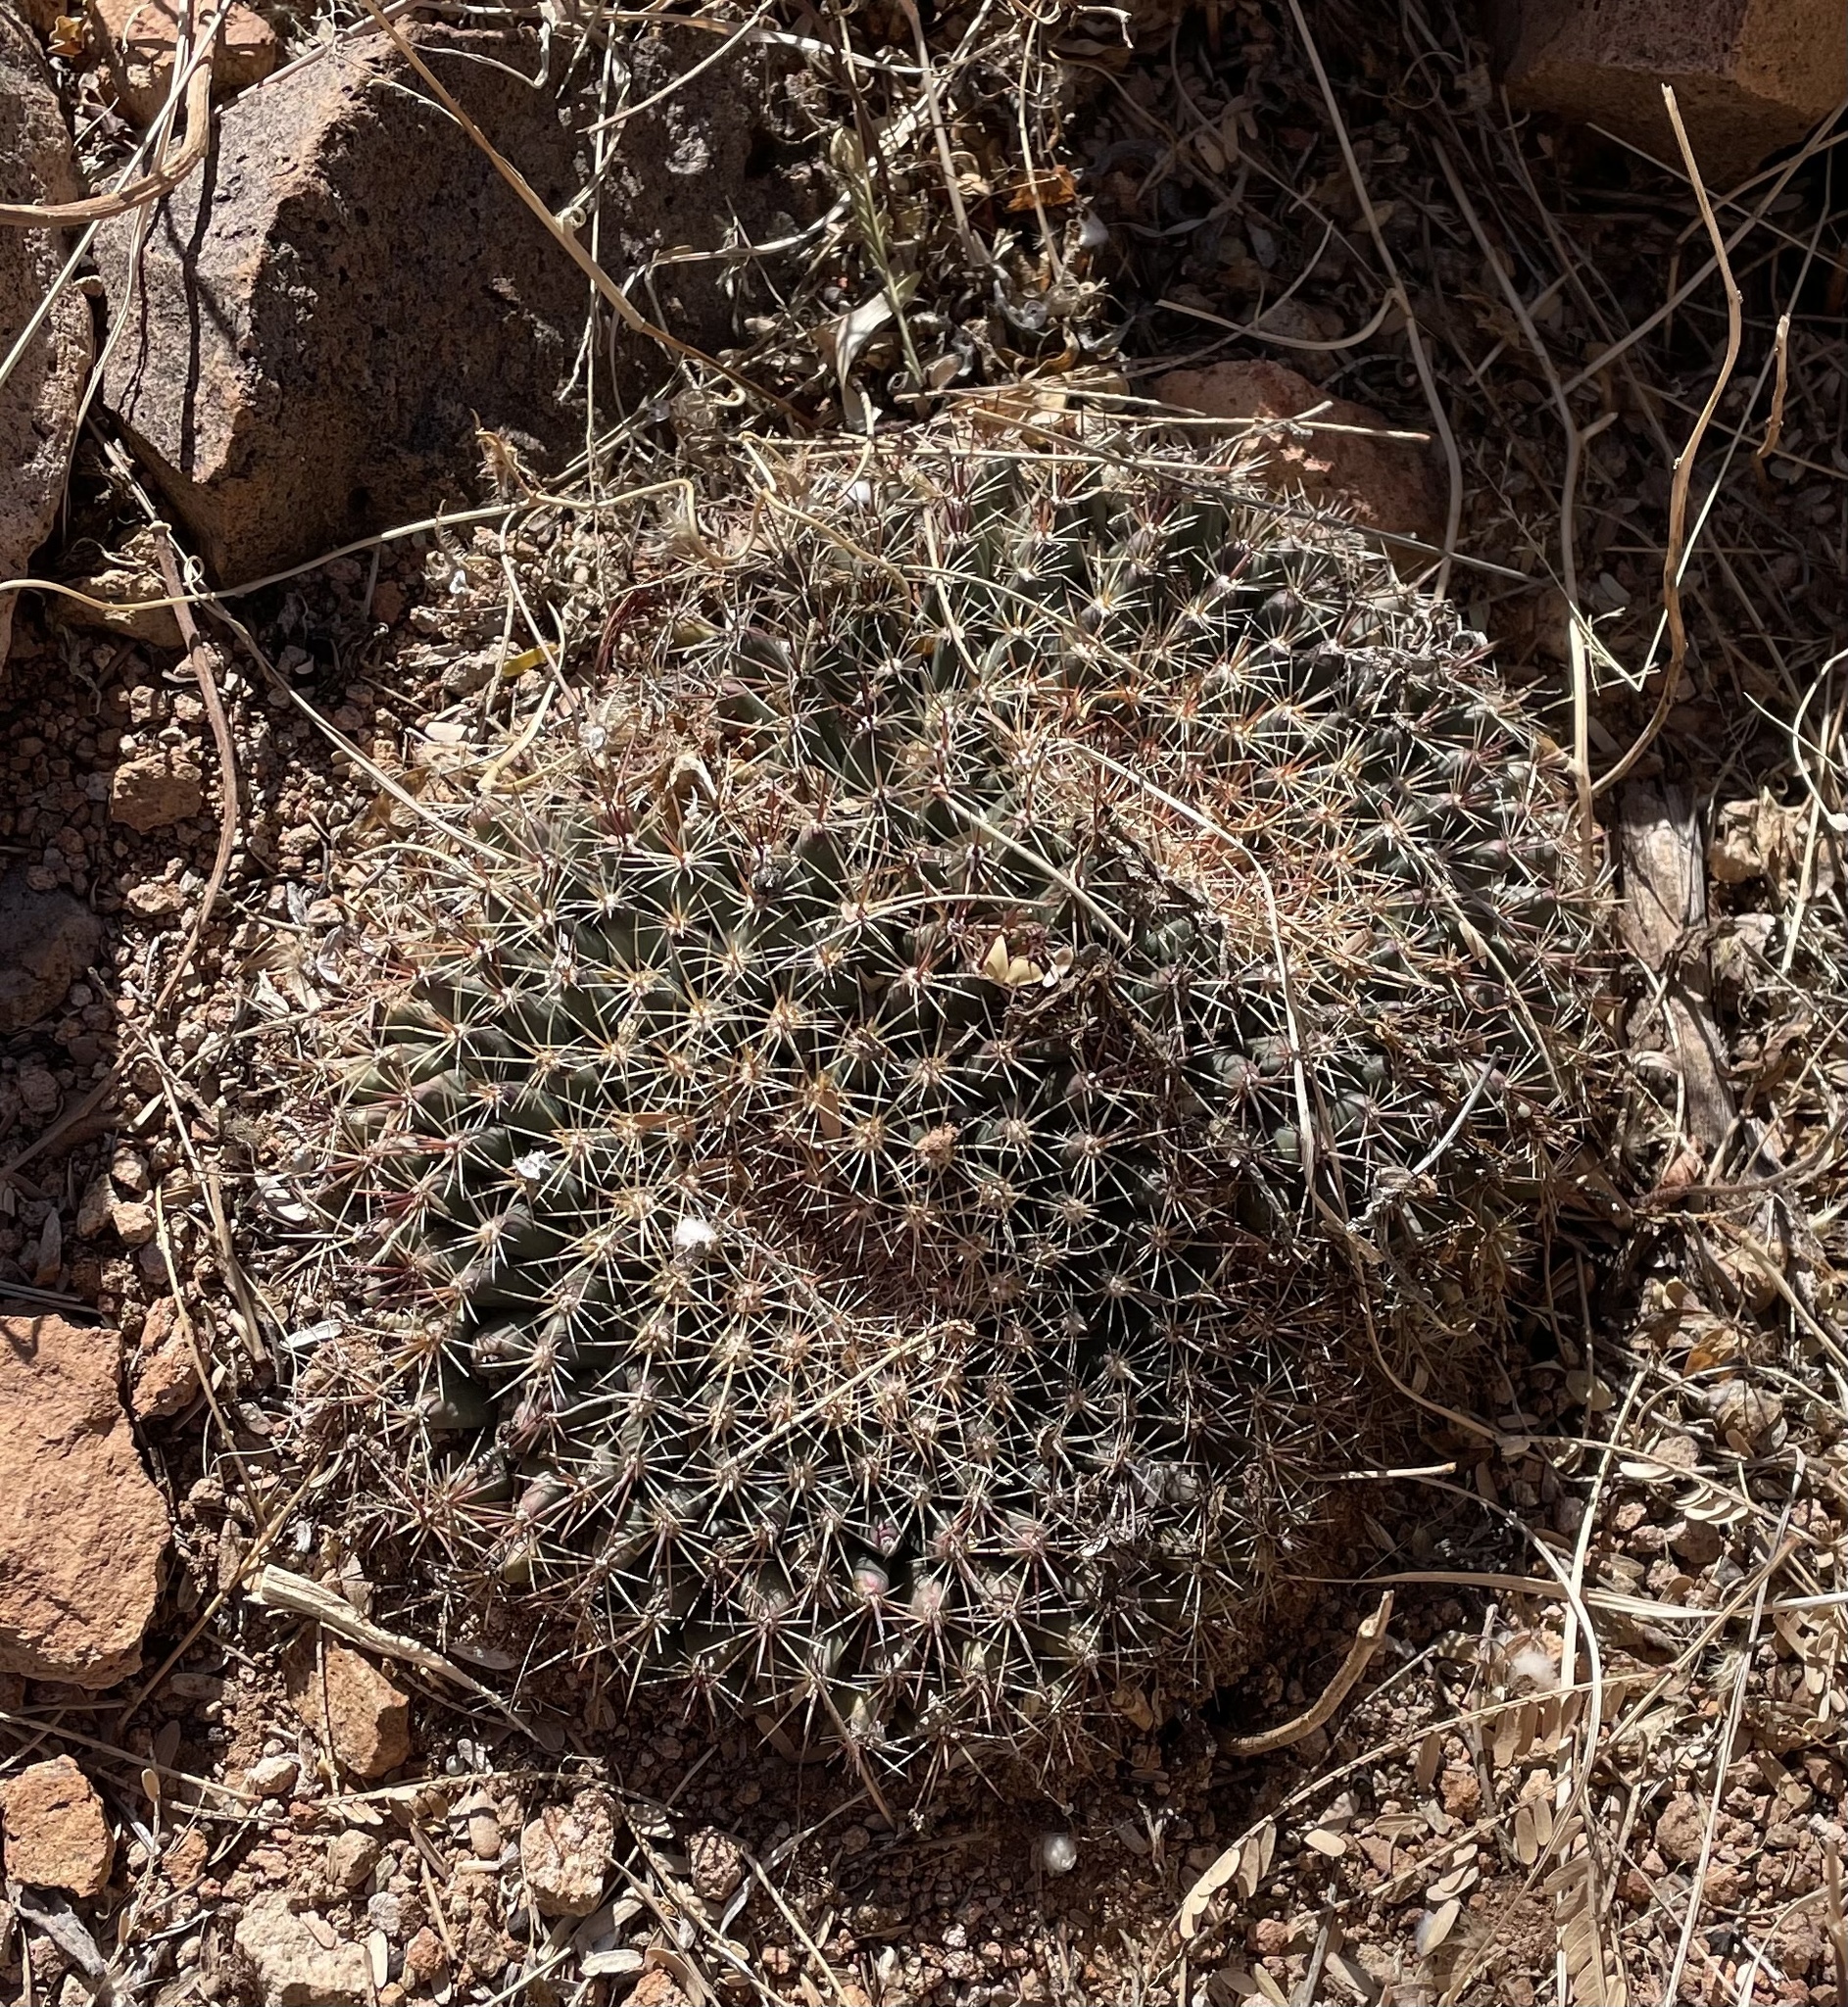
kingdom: Plantae
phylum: Tracheophyta
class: Magnoliopsida
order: Caryophyllales
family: Cactaceae
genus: Mammillaria
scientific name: Mammillaria heyderi
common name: Little nipple cactus
